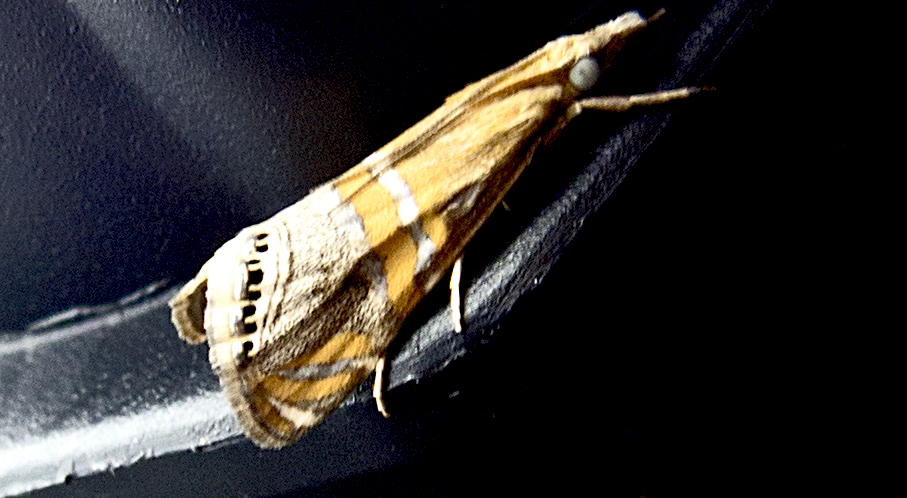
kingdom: Animalia
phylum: Arthropoda
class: Insecta
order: Lepidoptera
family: Crambidae
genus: Euchromius
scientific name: Euchromius bella
